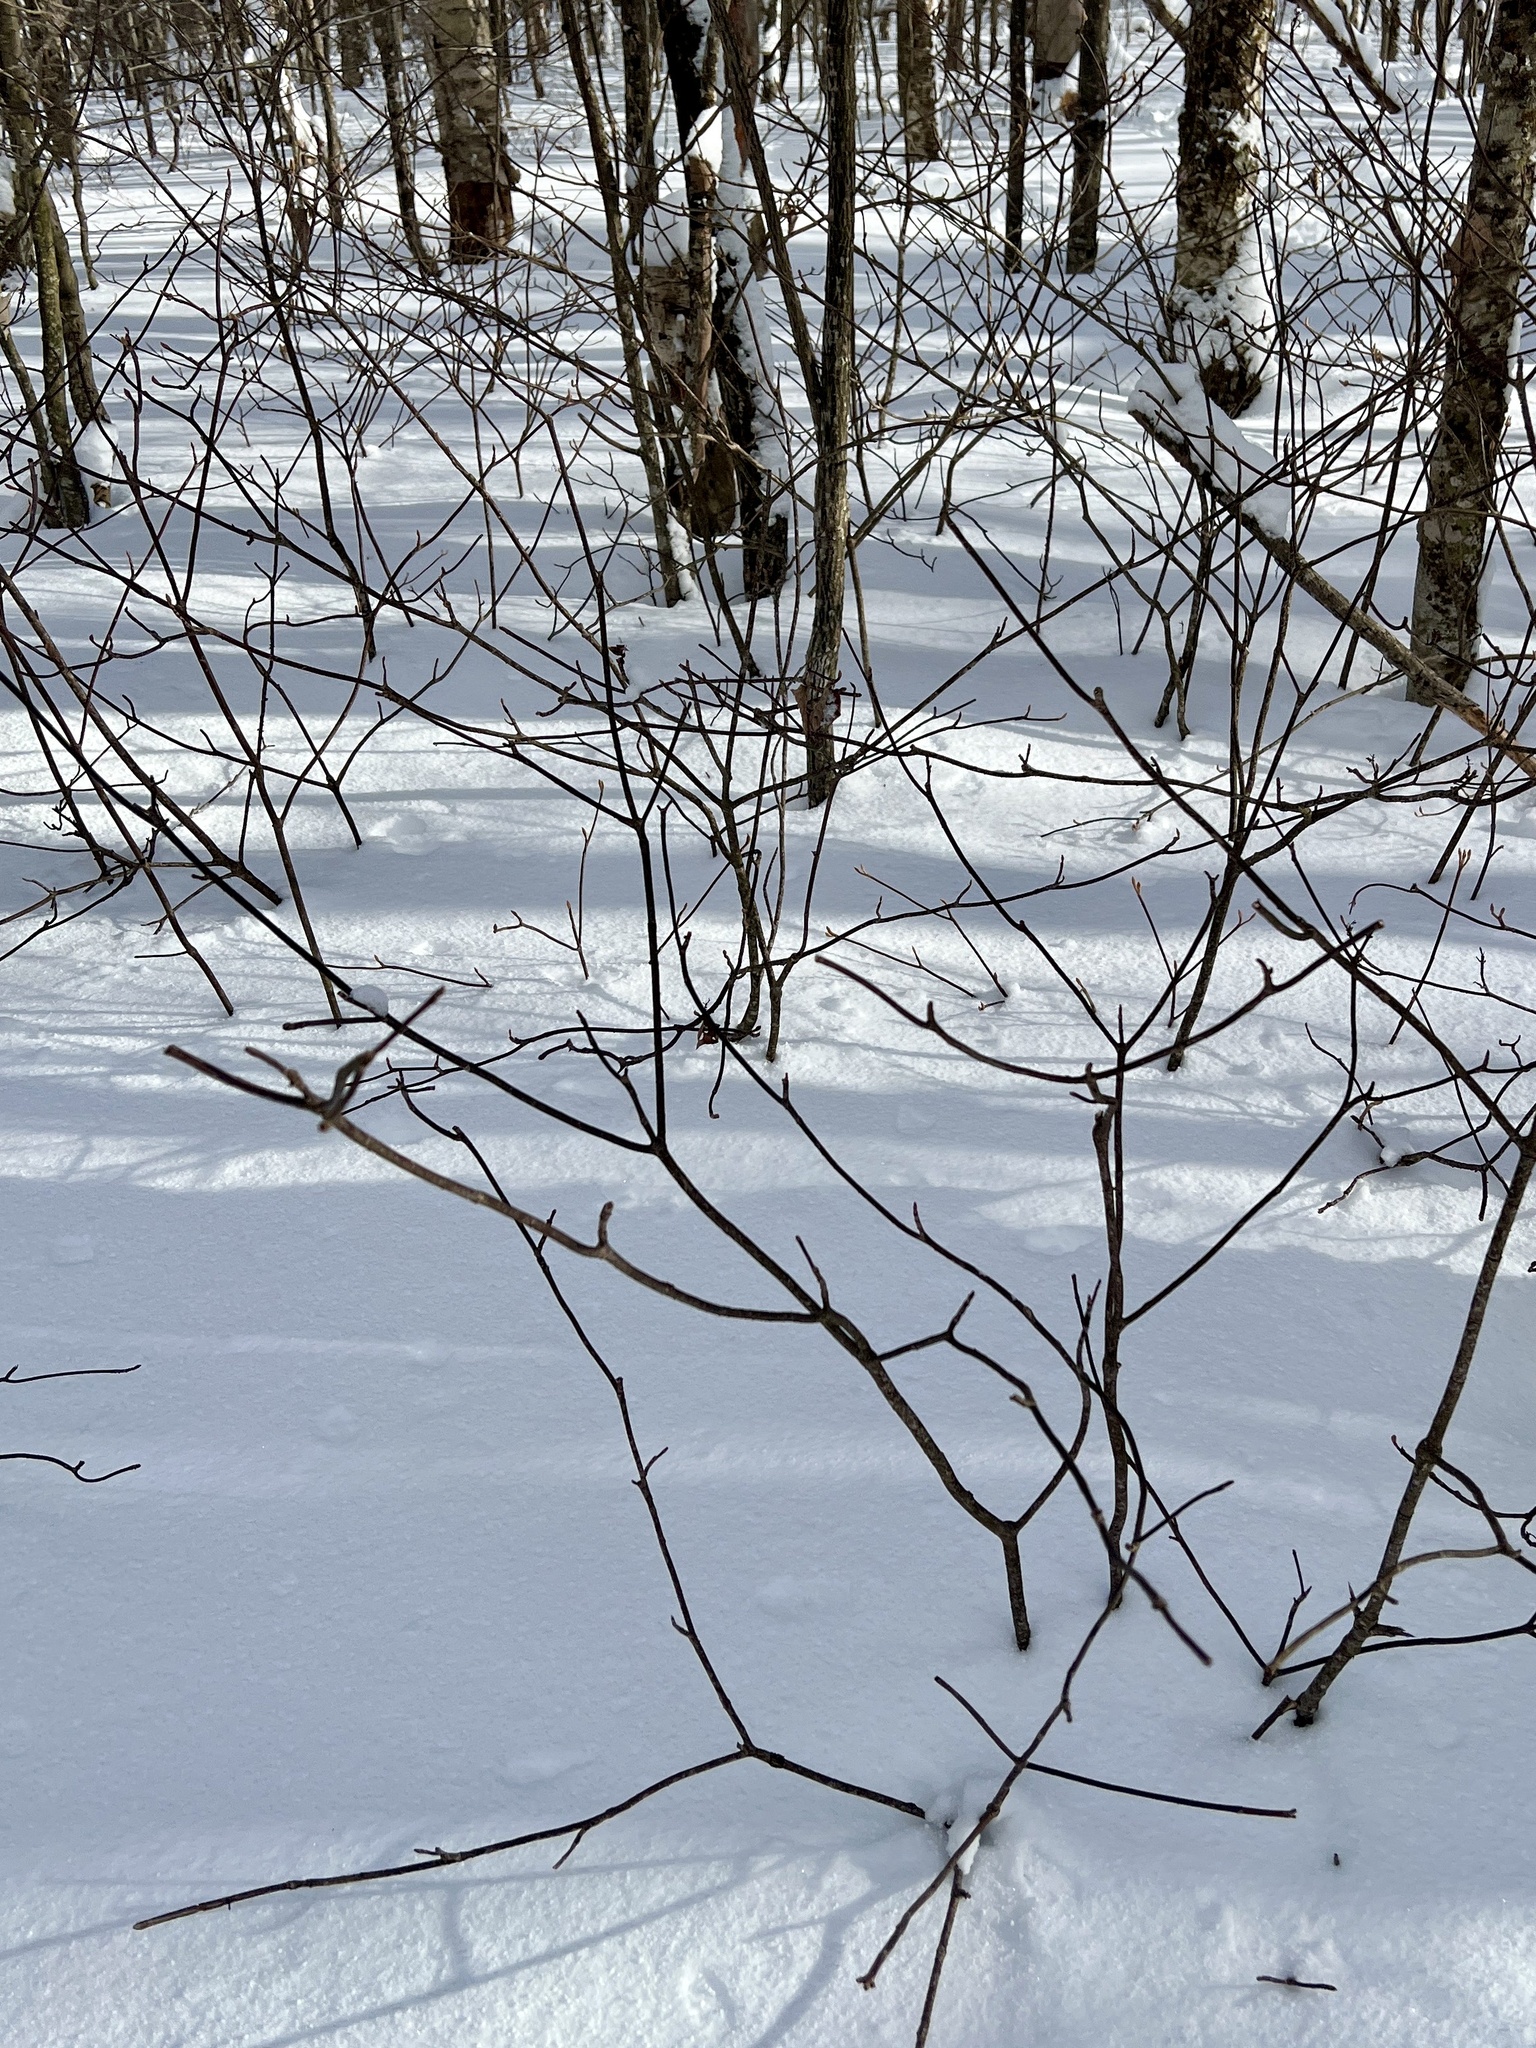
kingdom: Plantae
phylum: Tracheophyta
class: Magnoliopsida
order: Dipsacales
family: Viburnaceae
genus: Viburnum
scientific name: Viburnum lantanoides
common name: Hobblebush
